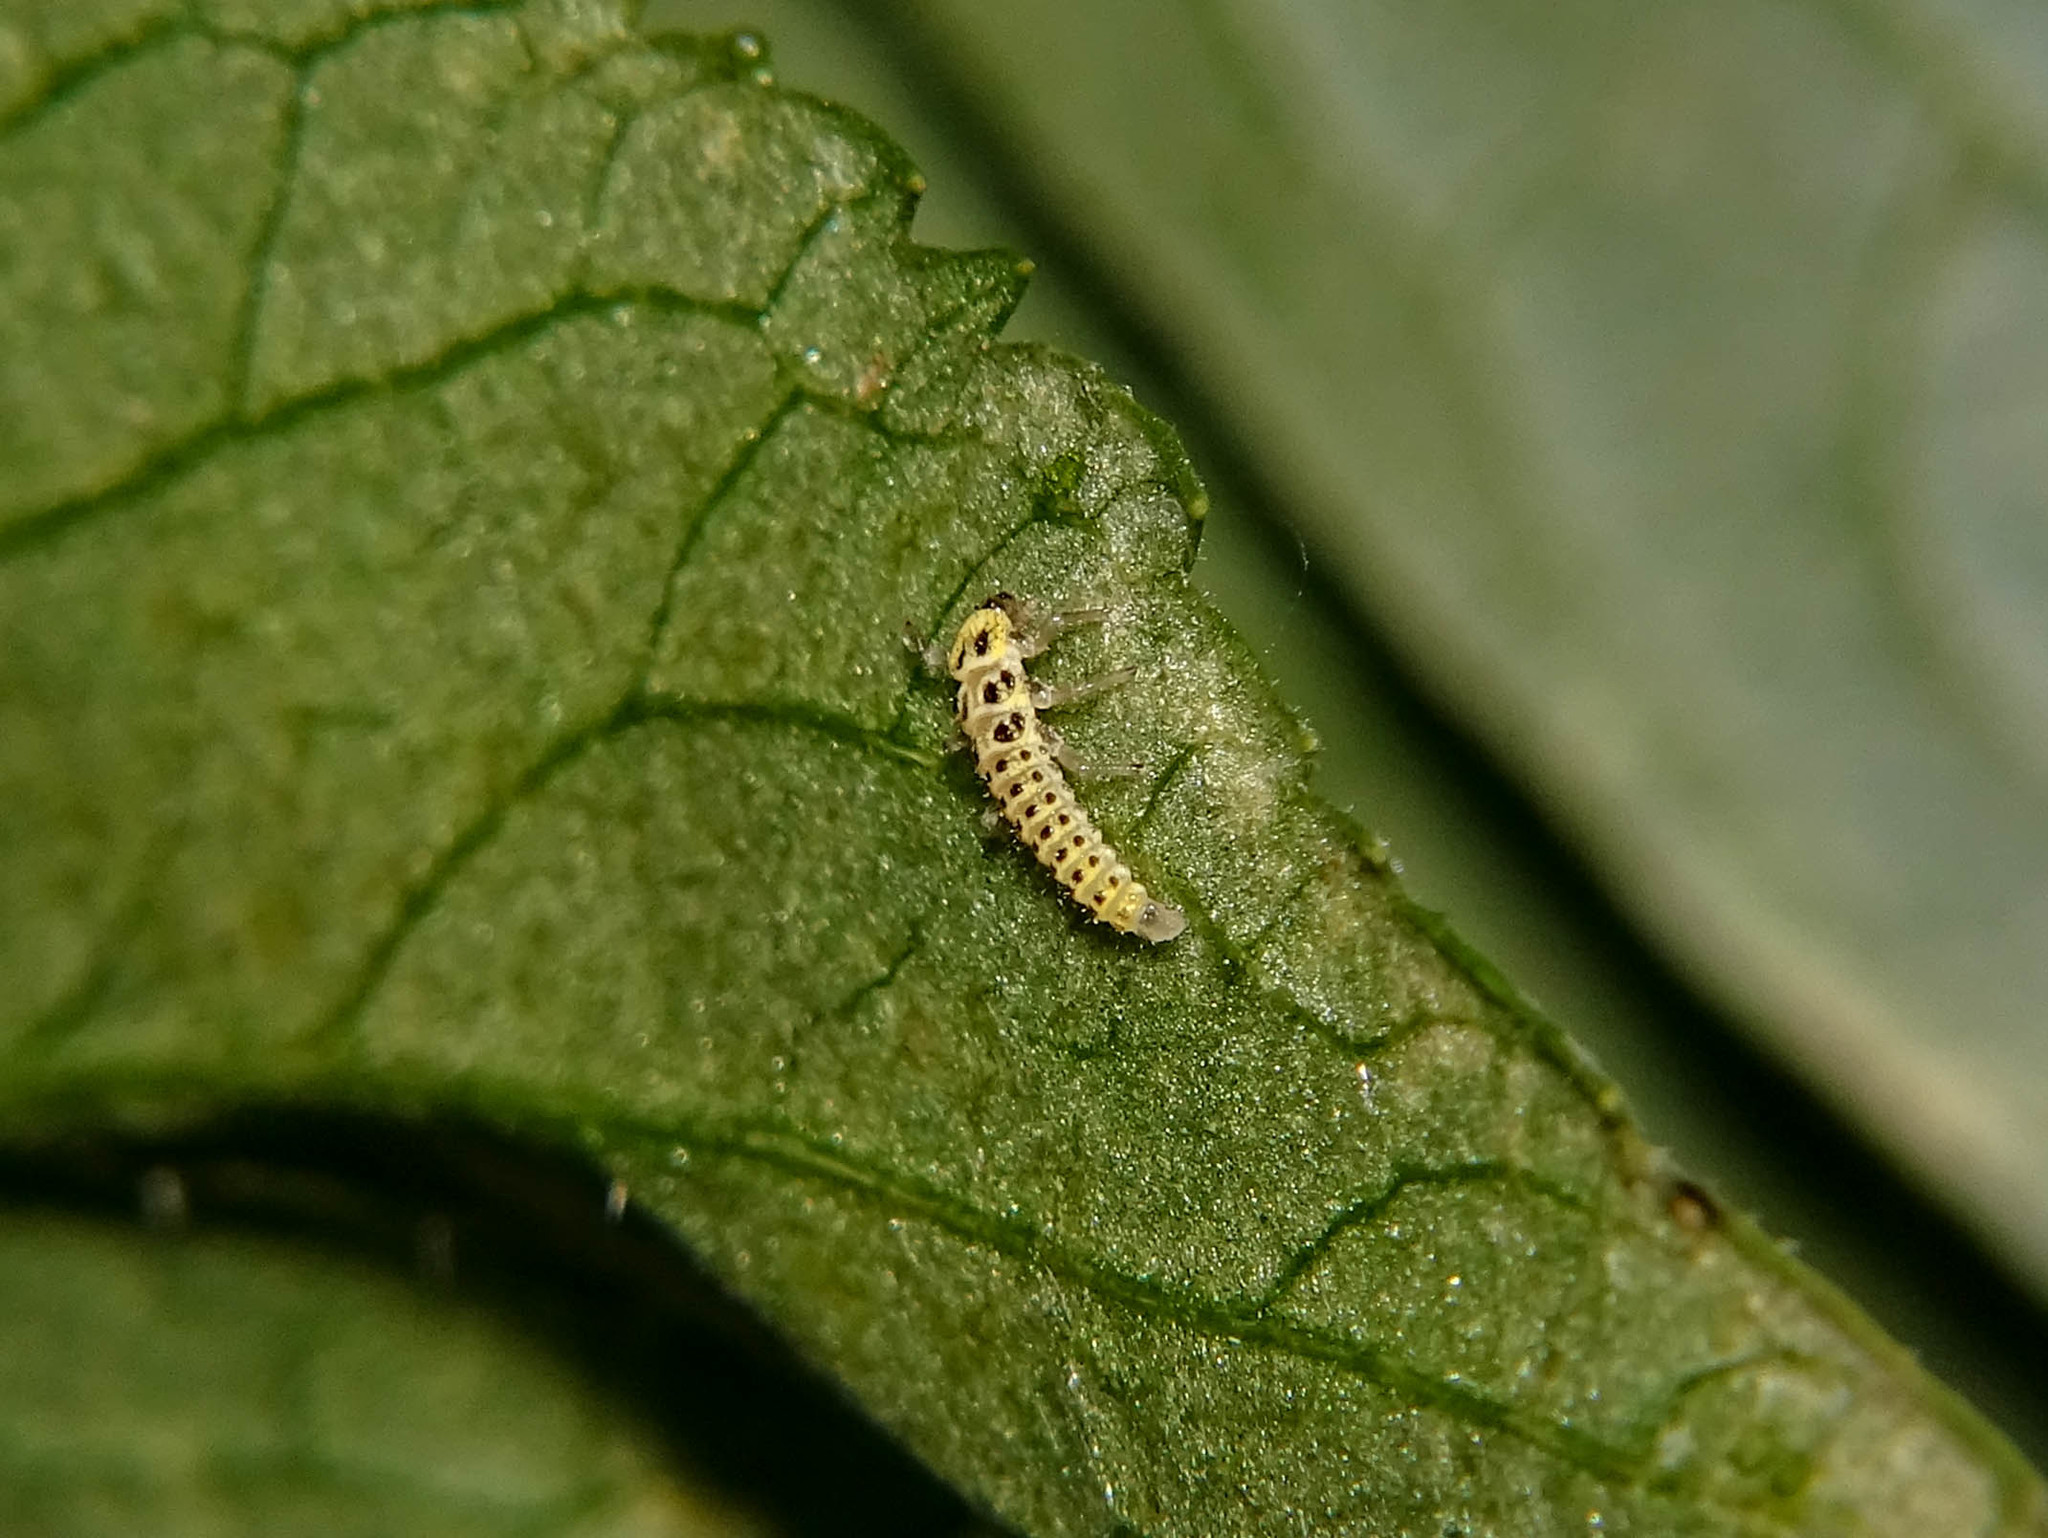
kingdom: Animalia
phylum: Arthropoda
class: Insecta
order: Coleoptera
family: Coccinellidae
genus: Vibidia
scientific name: Vibidia duodecimguttata
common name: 12-spot ladybird
